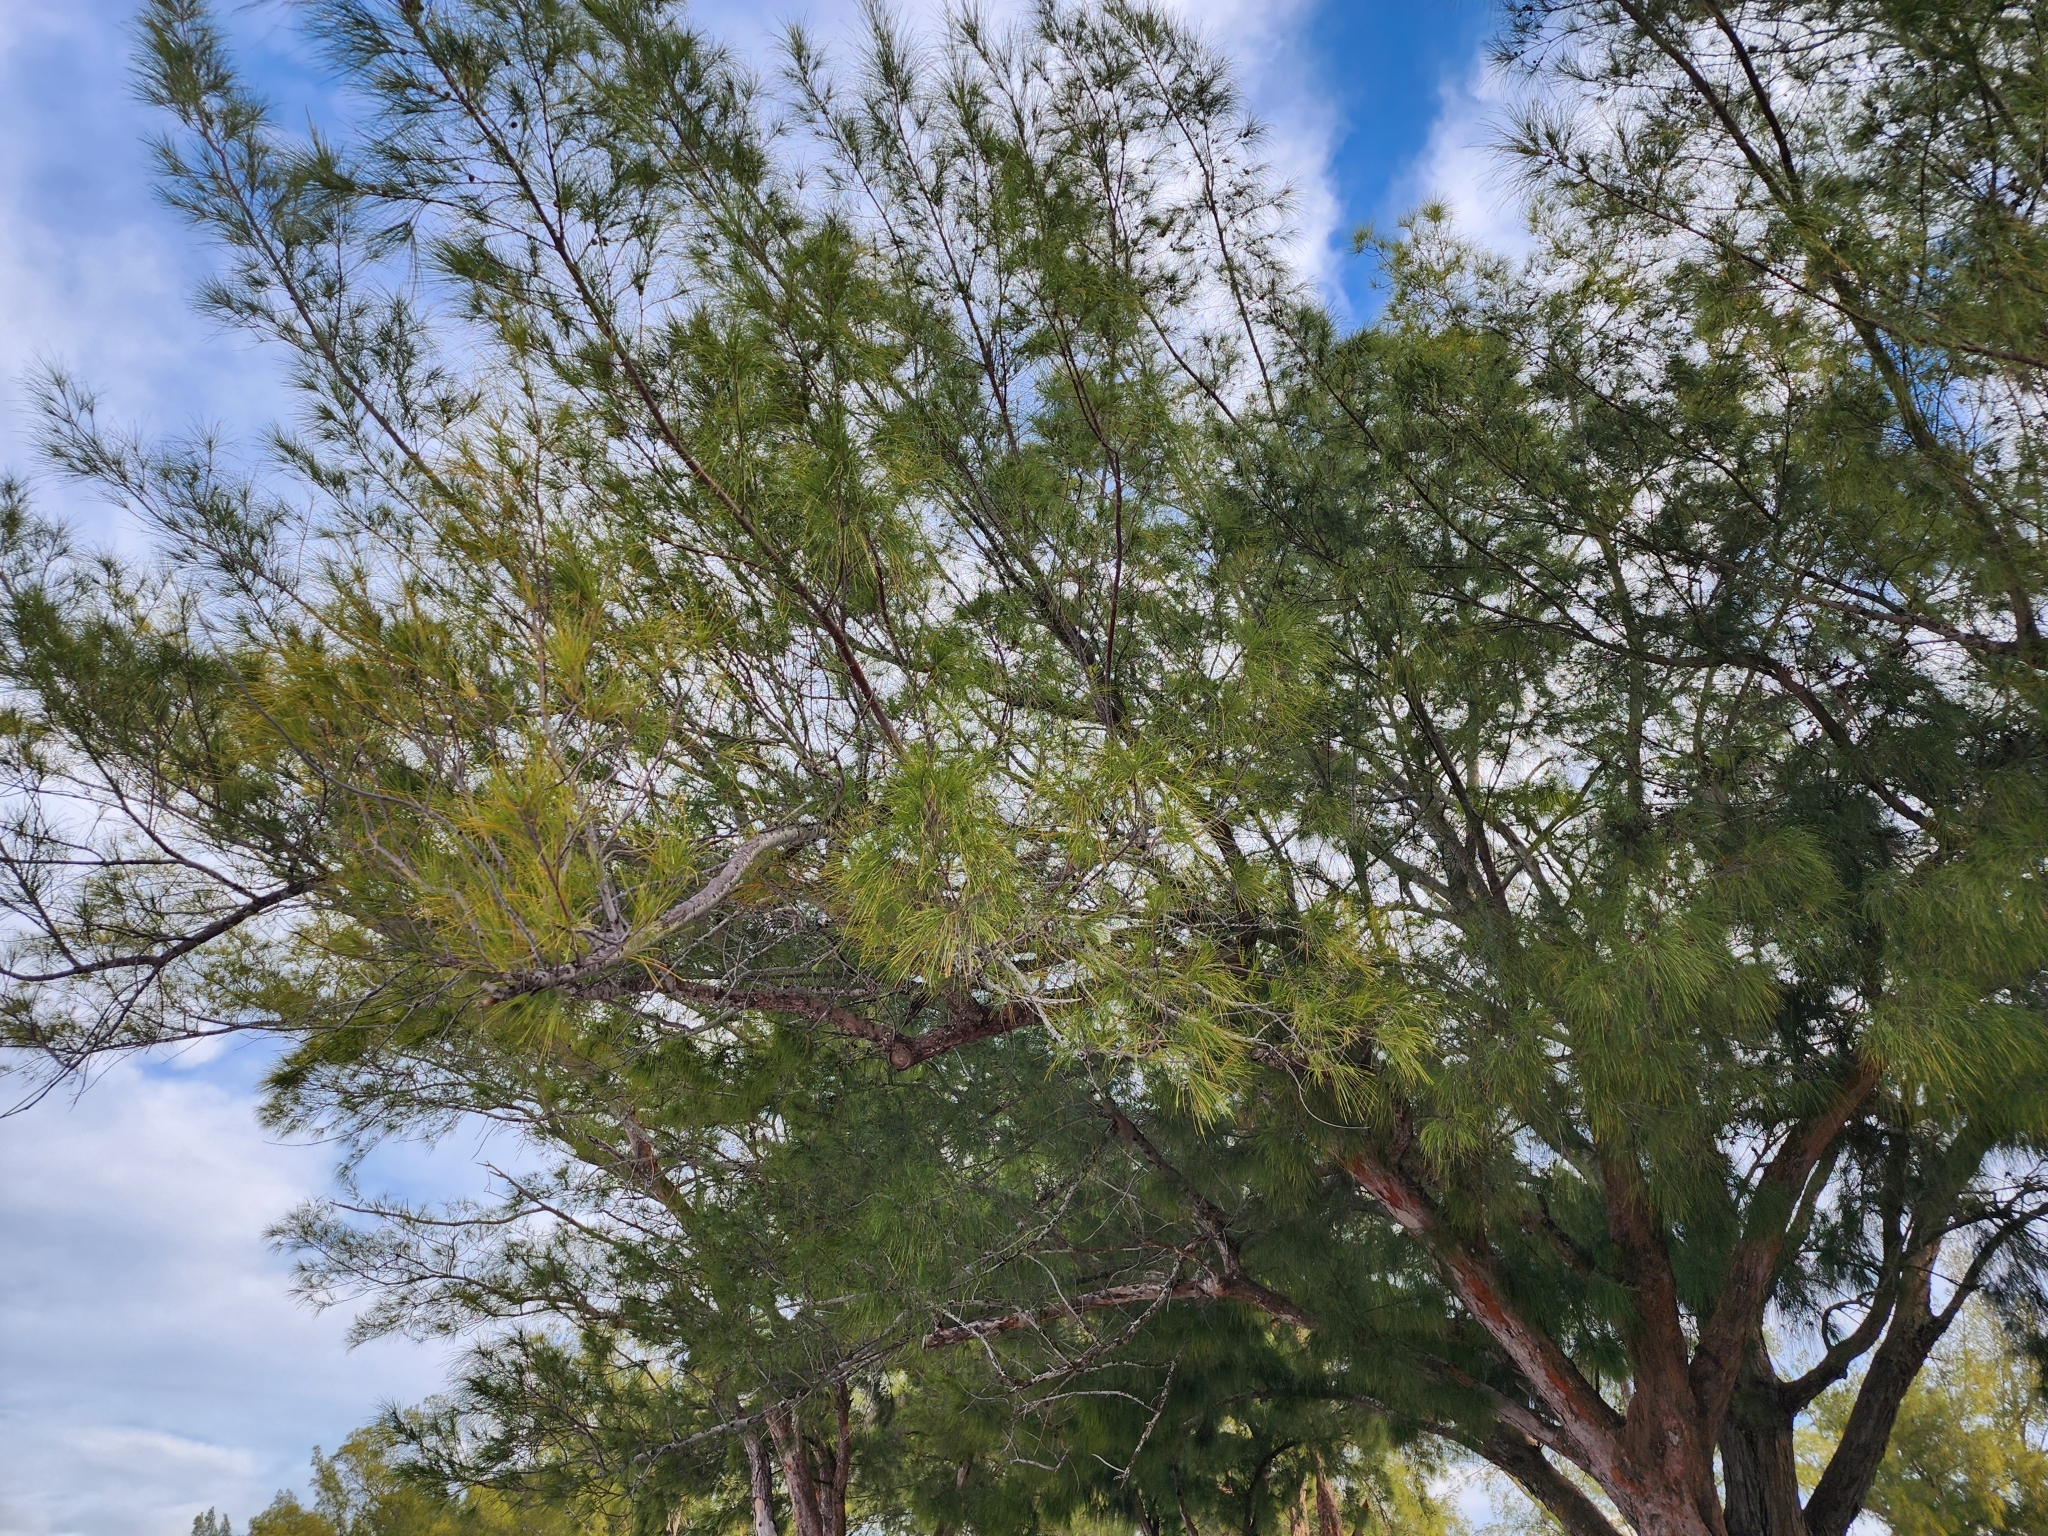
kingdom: Plantae
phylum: Tracheophyta
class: Magnoliopsida
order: Fagales
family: Casuarinaceae
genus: Casuarina
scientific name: Casuarina equisetifolia
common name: Beach sheoak
